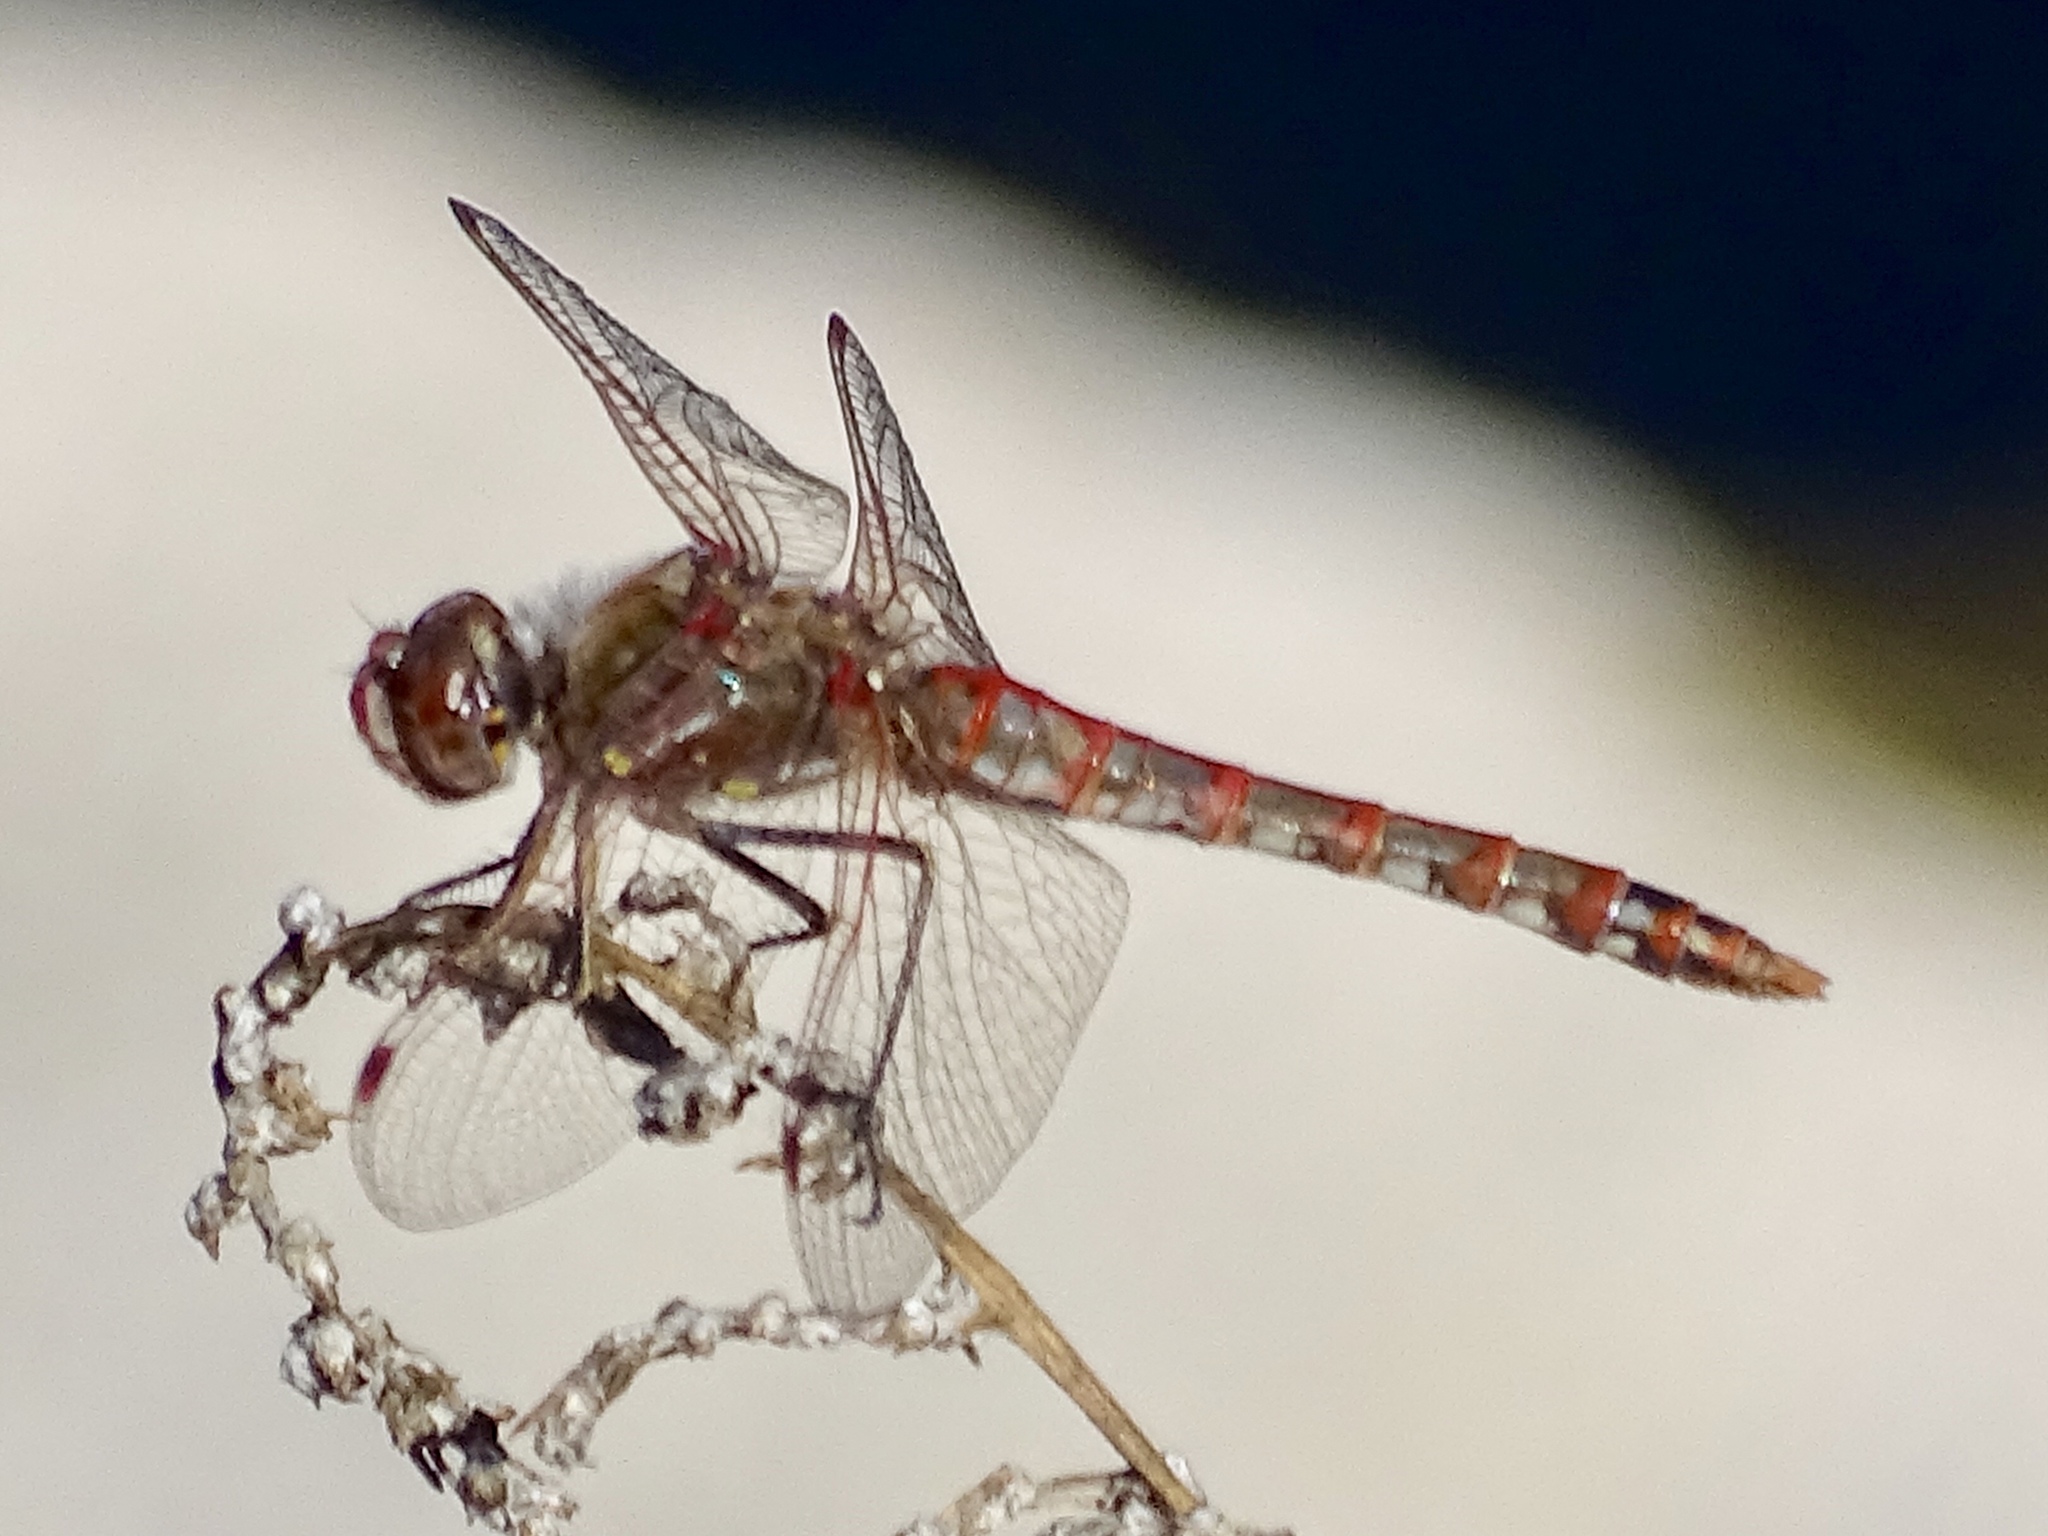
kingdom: Animalia
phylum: Arthropoda
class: Insecta
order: Odonata
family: Libellulidae
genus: Sympetrum
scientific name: Sympetrum corruptum
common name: Variegated meadowhawk
